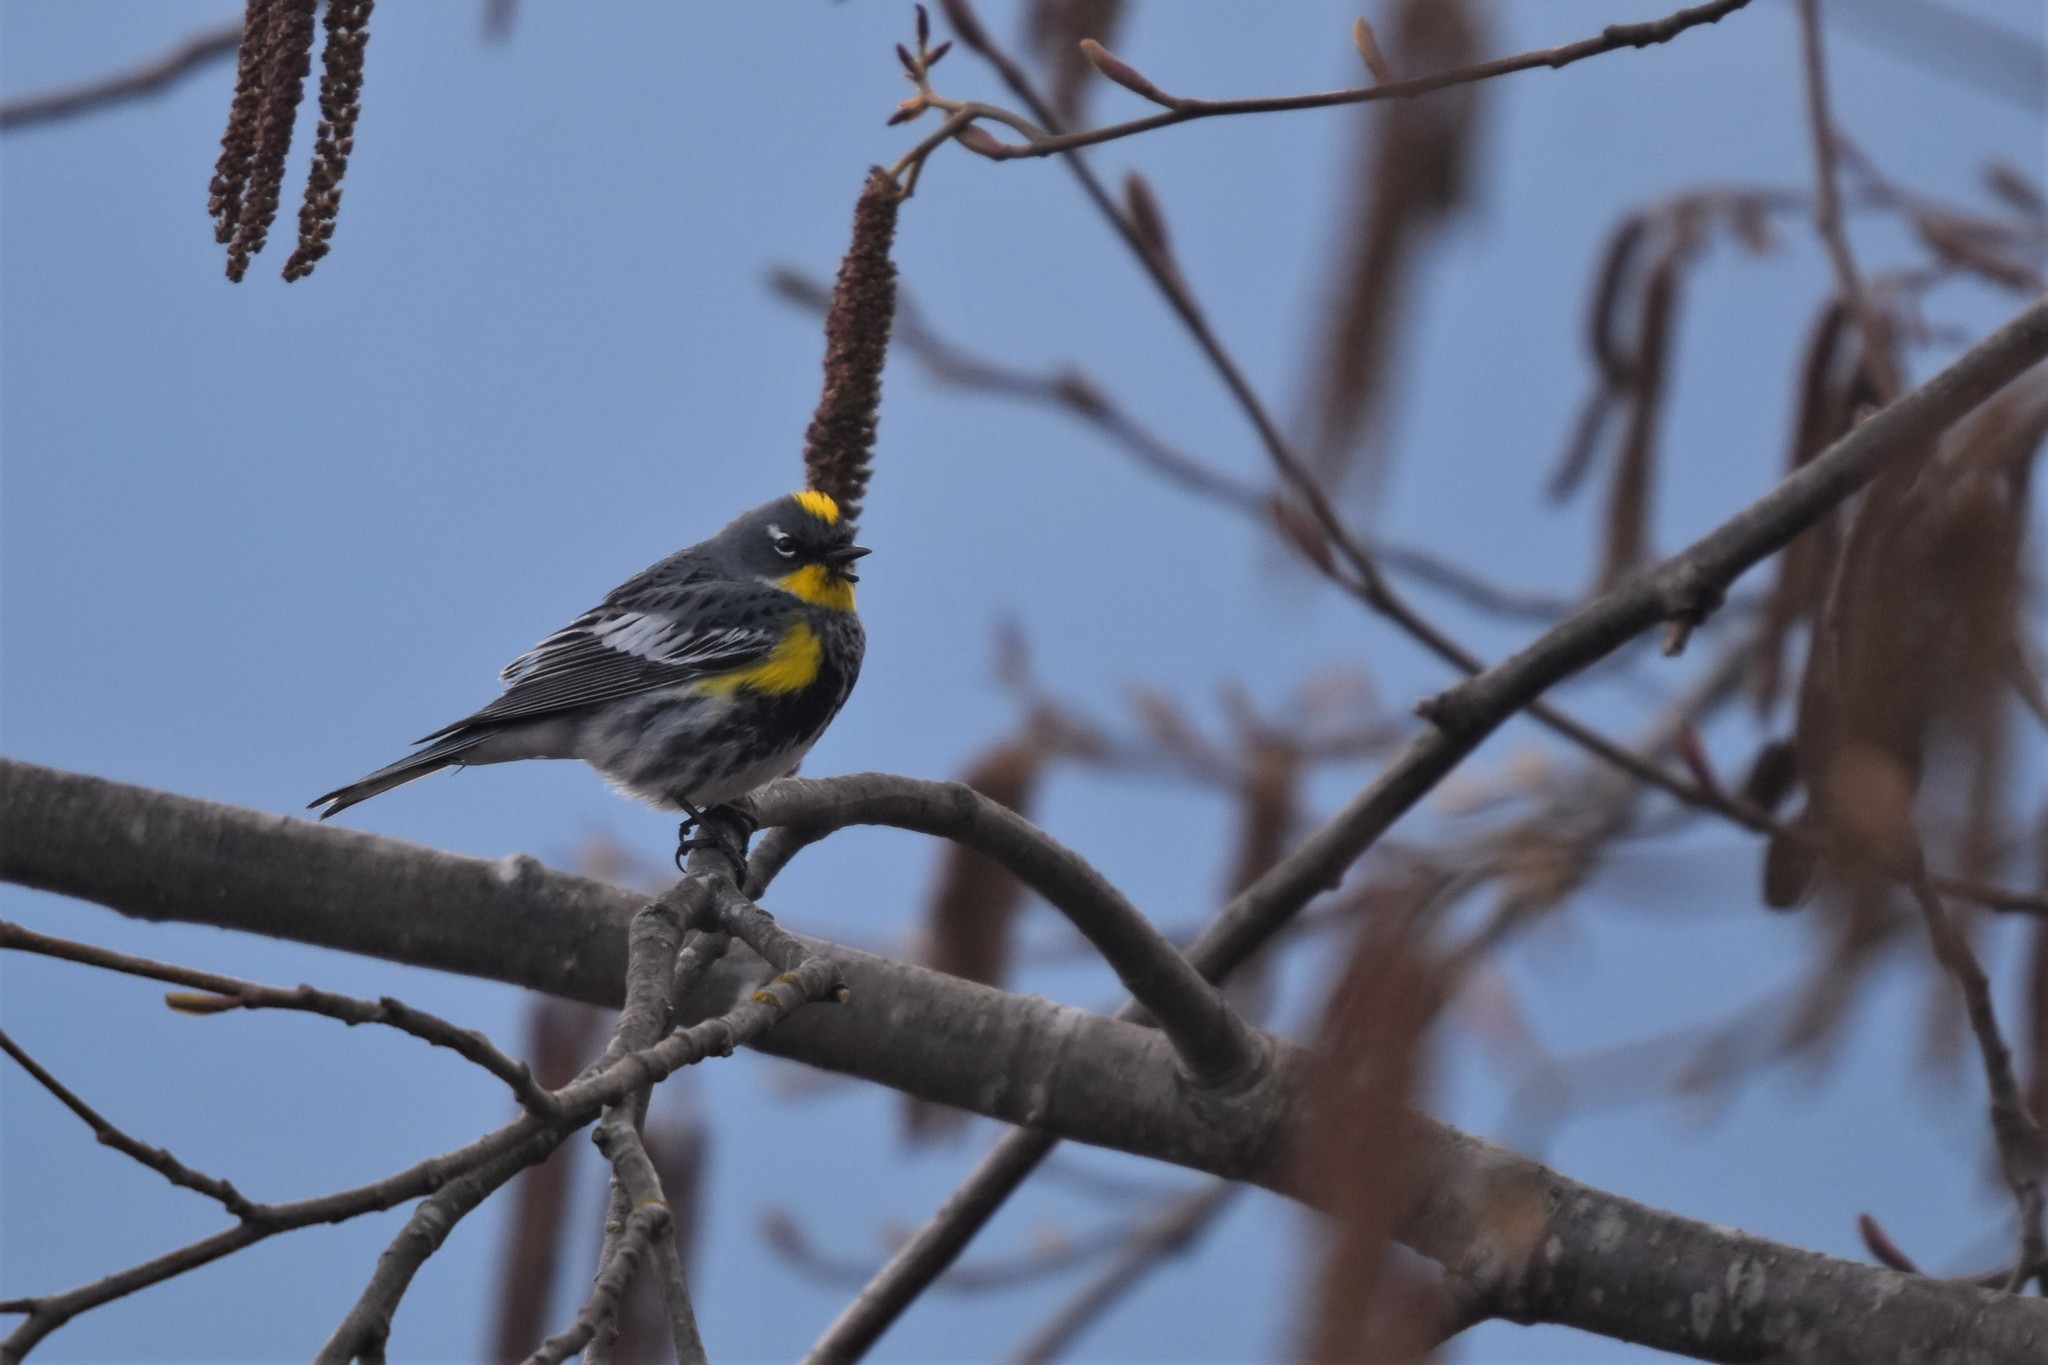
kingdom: Animalia
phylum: Chordata
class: Aves
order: Passeriformes
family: Parulidae
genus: Setophaga
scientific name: Setophaga
